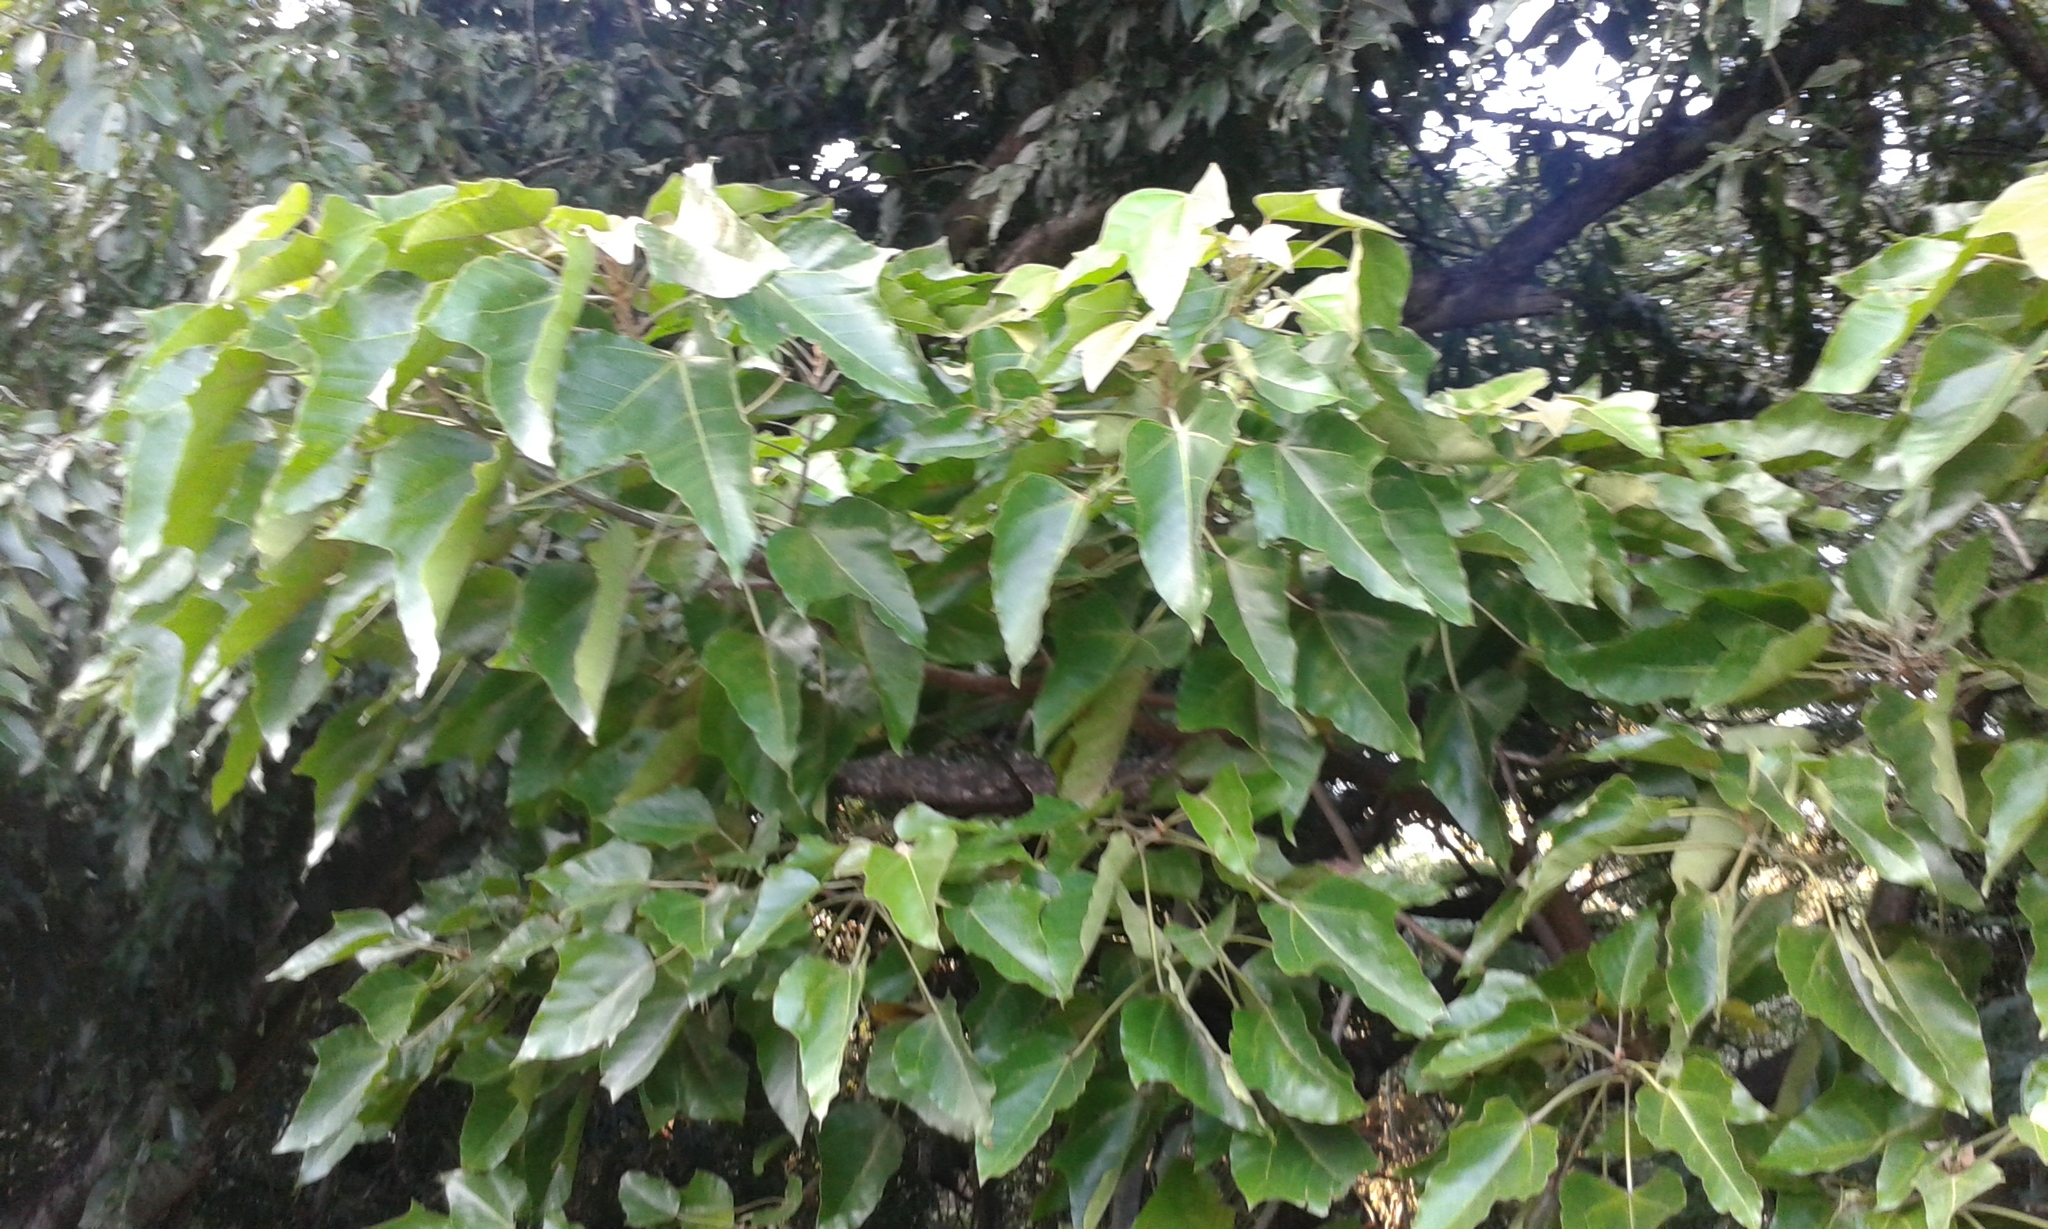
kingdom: Plantae
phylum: Tracheophyta
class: Magnoliopsida
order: Malpighiales
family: Euphorbiaceae
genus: Aleurites
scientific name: Aleurites moluccanus
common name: Candlenut tree
